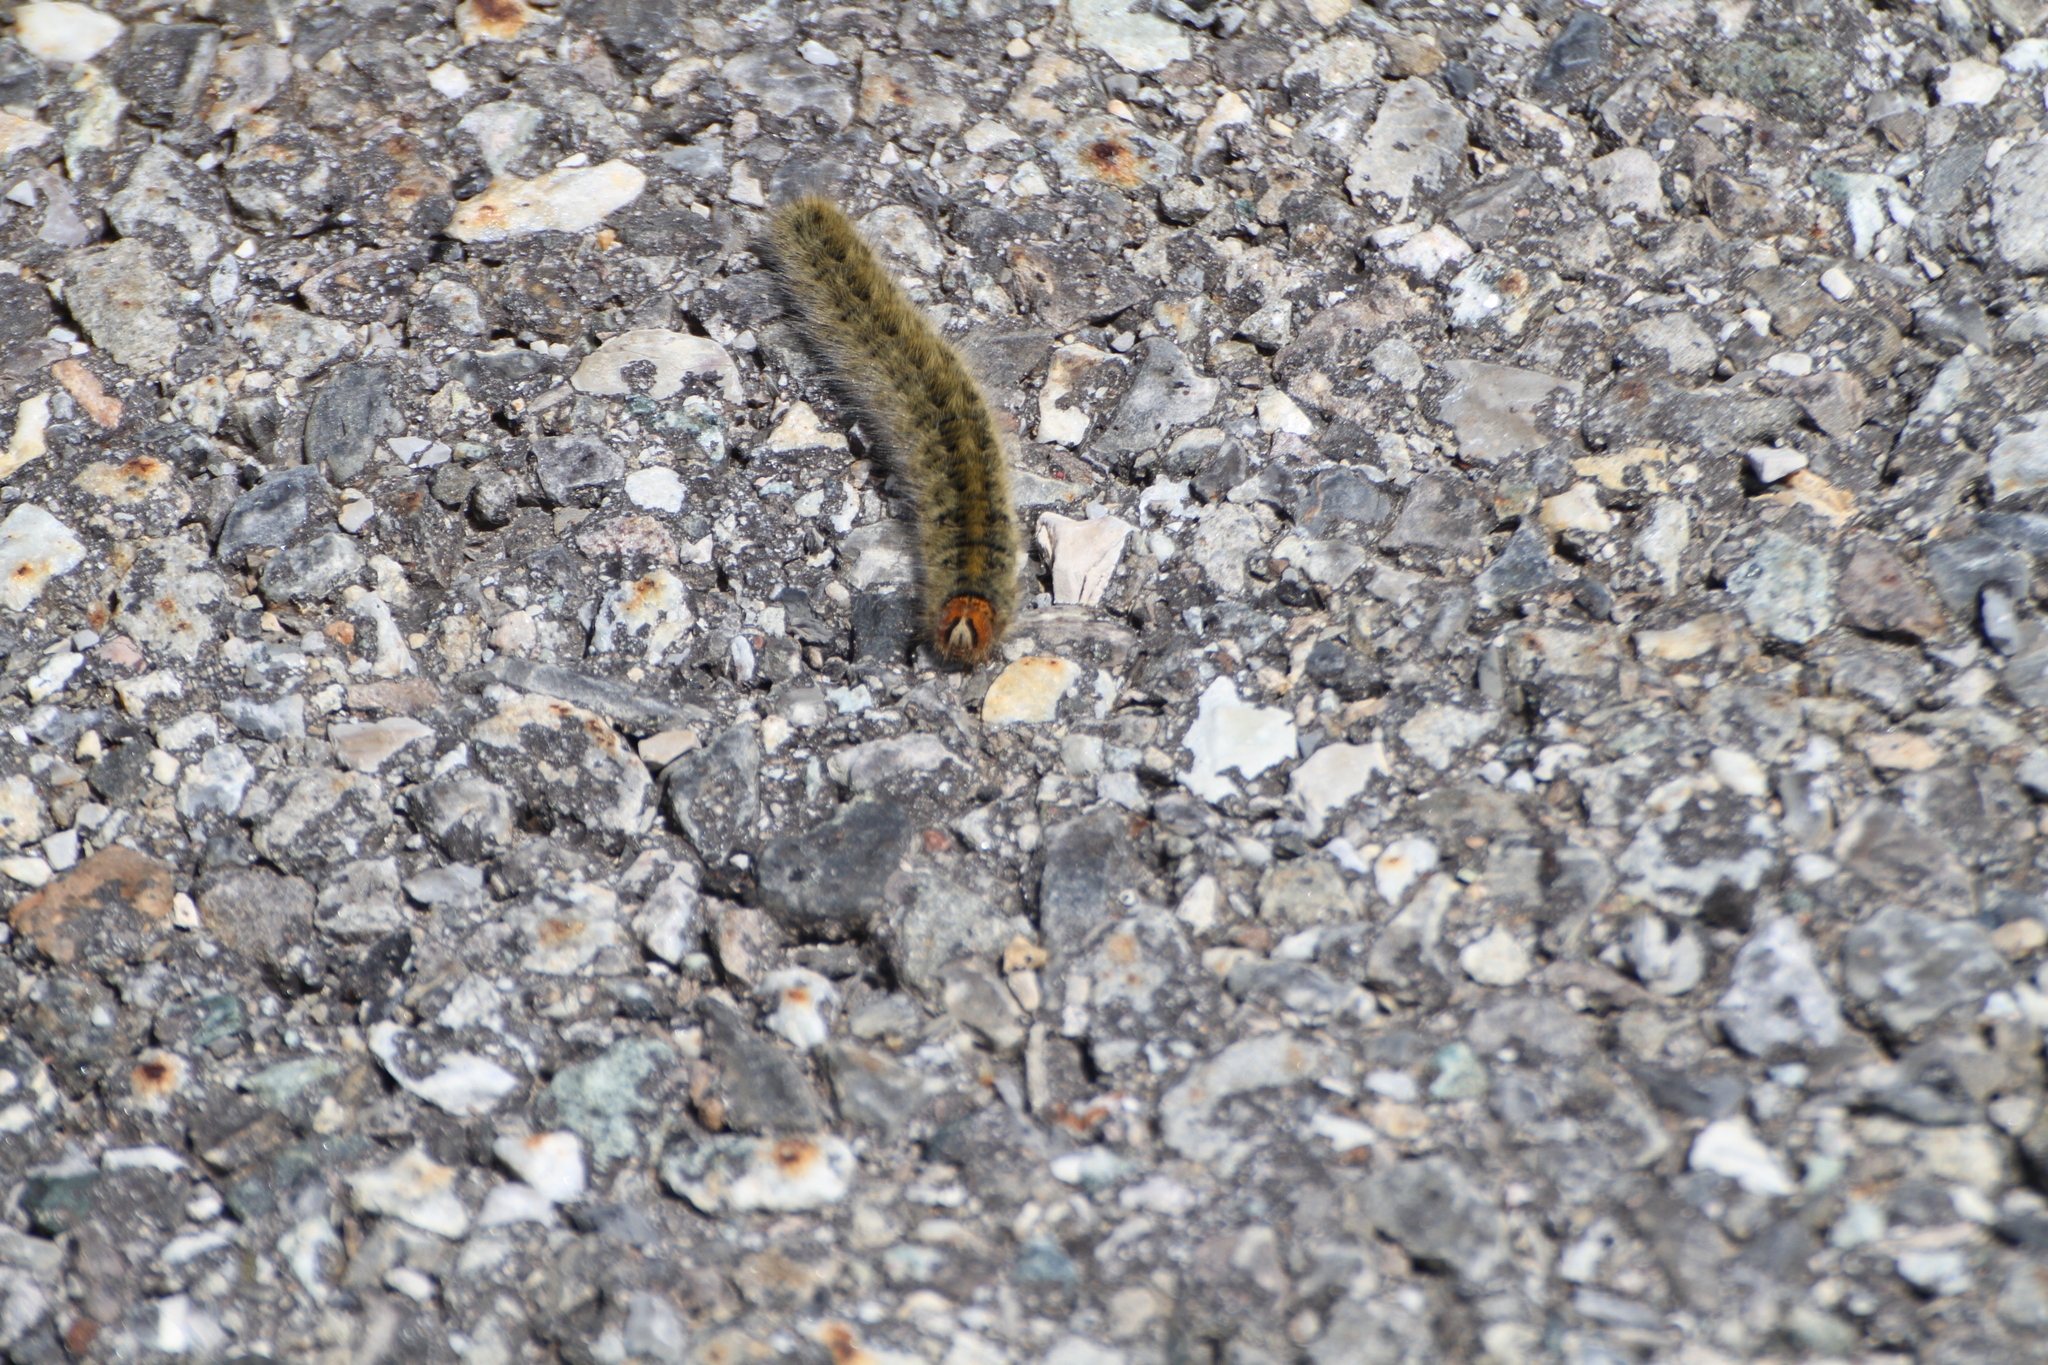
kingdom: Animalia
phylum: Arthropoda
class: Insecta
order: Lepidoptera
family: Lasiocampidae
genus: Lasiocampa
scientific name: Lasiocampa trifolii
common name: Grass eggar
